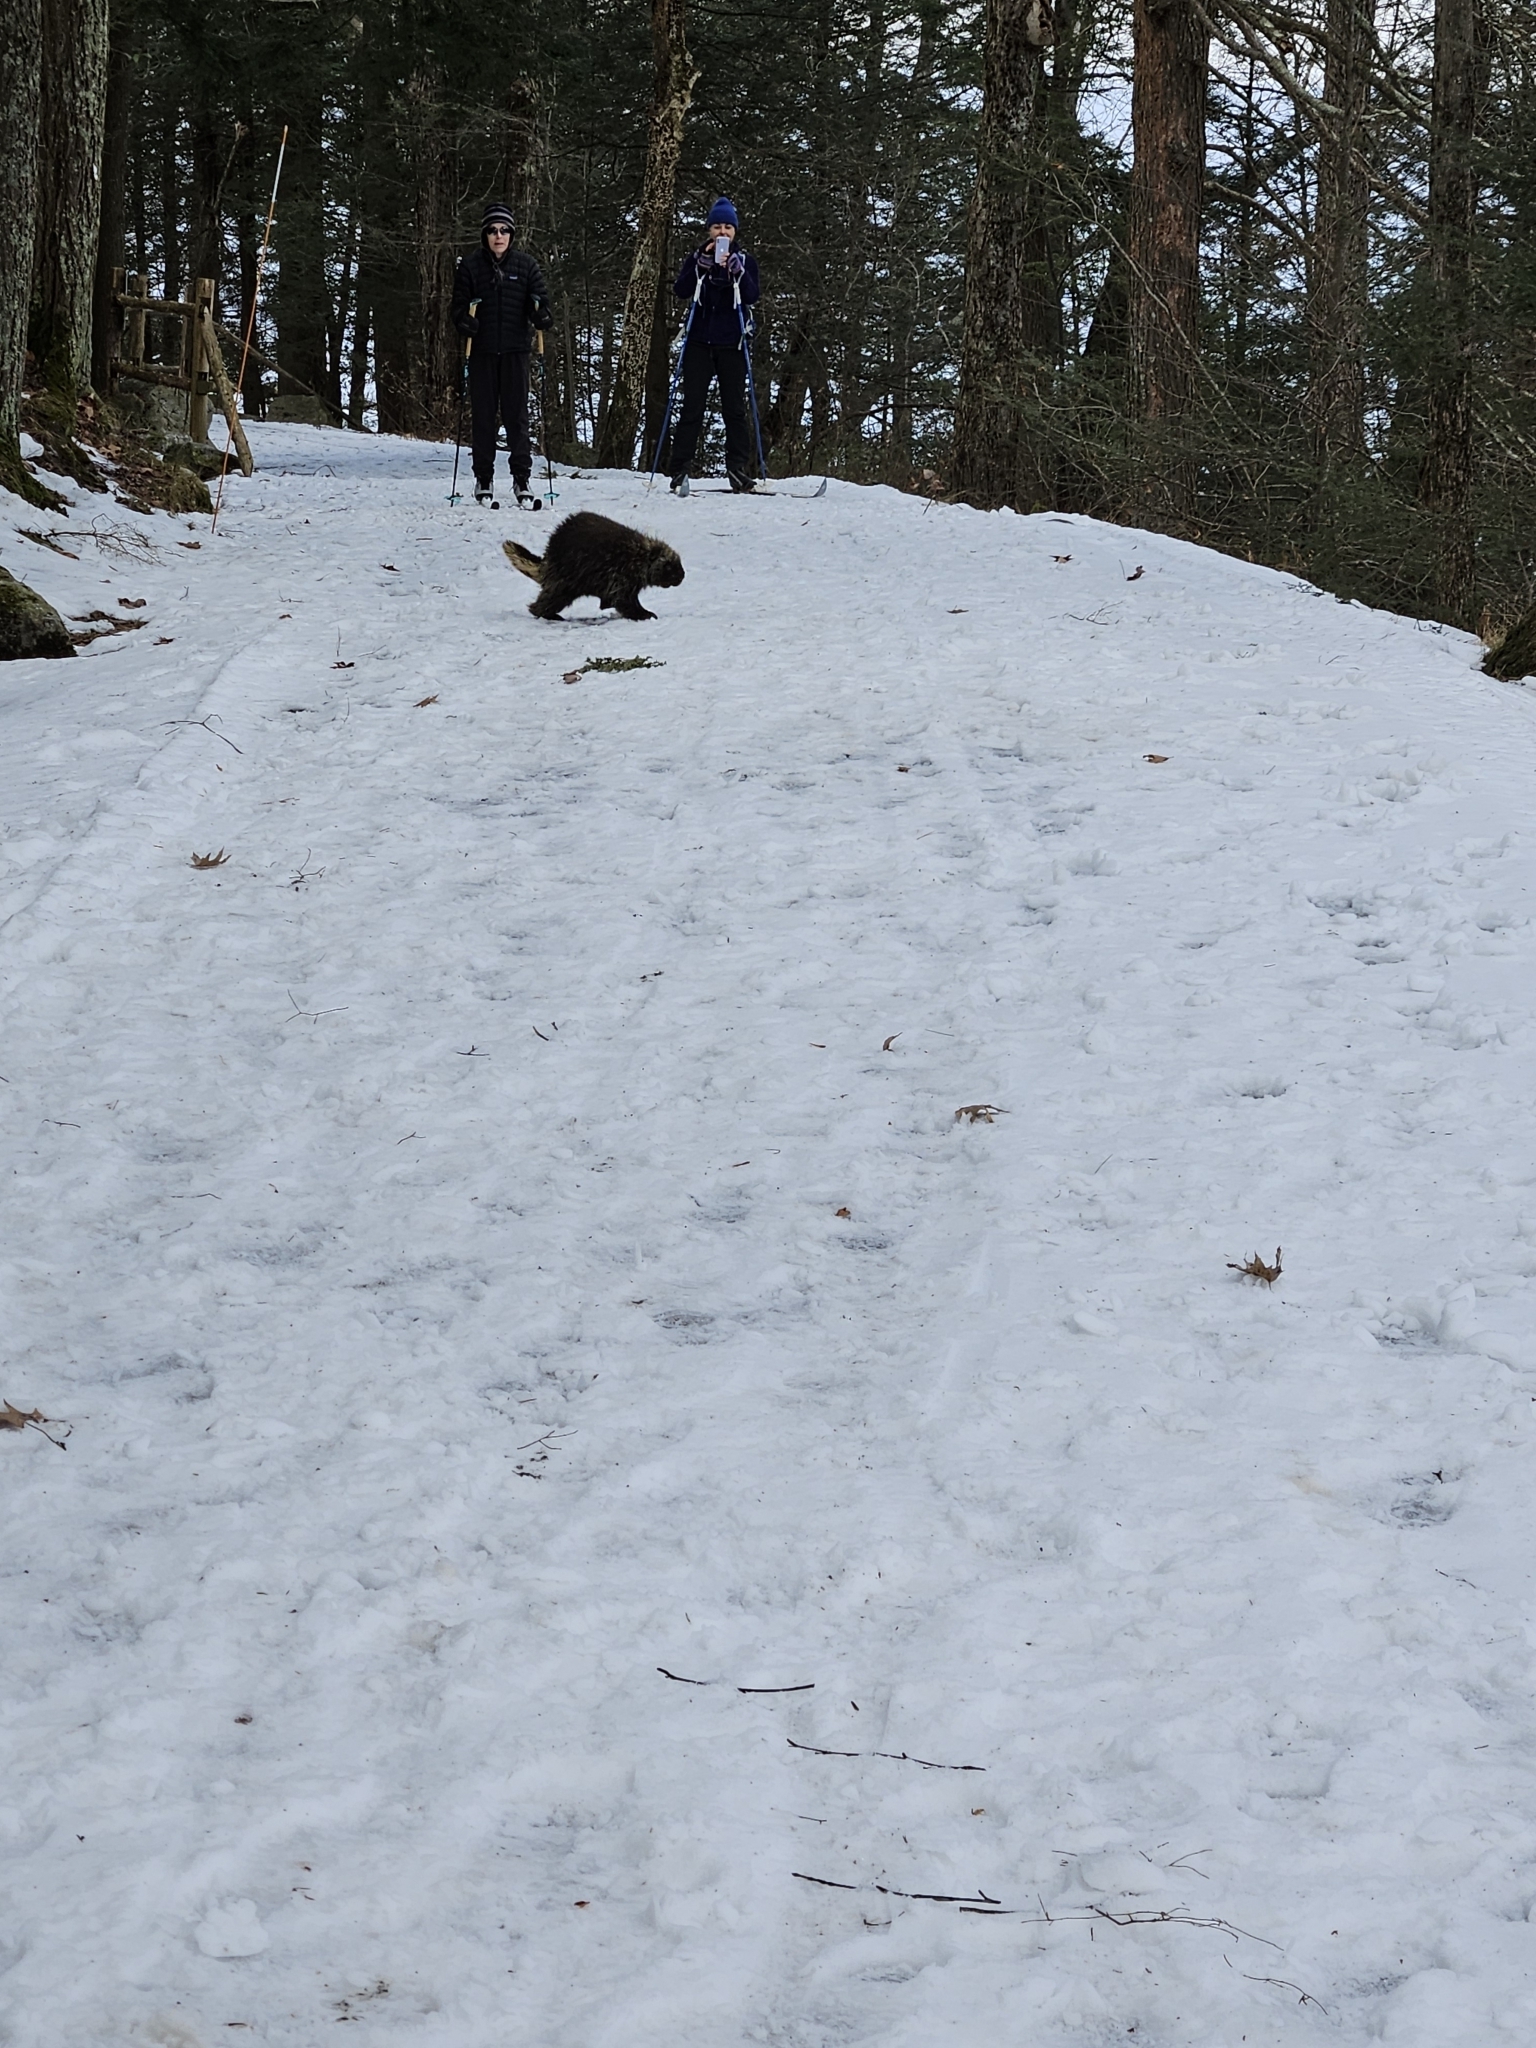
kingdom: Animalia
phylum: Chordata
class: Mammalia
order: Rodentia
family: Erethizontidae
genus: Erethizon
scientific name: Erethizon dorsatus
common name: North american porcupine
